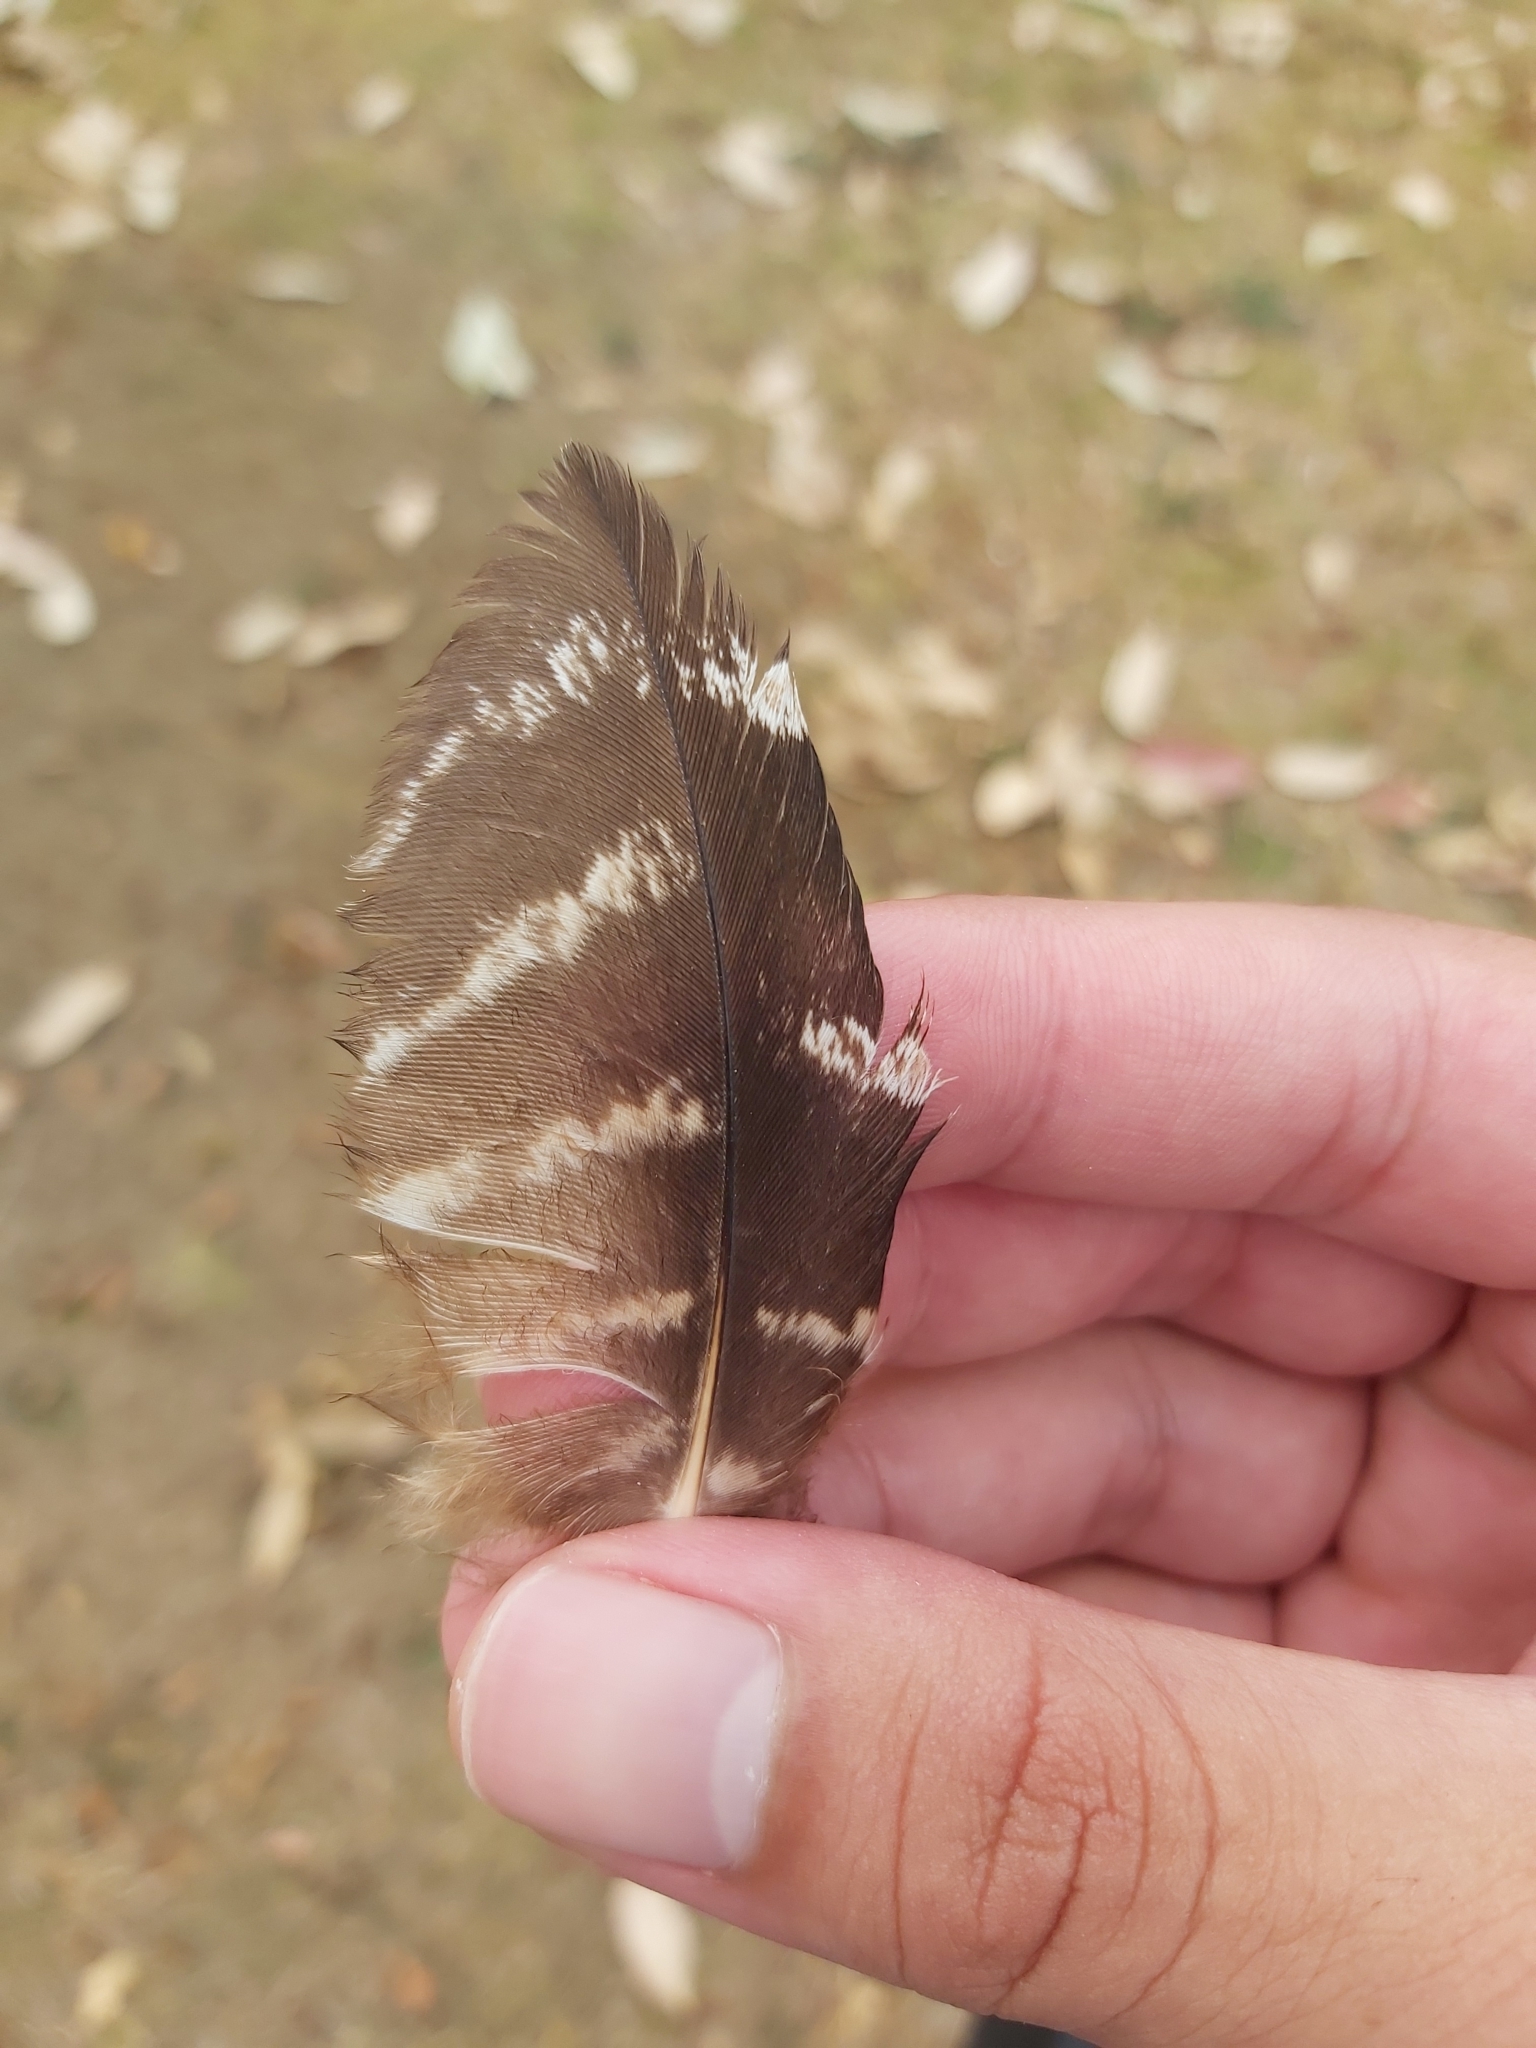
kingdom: Animalia
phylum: Chordata
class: Aves
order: Caprimulgiformes
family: Podargidae
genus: Podargus
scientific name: Podargus strigoides
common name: Tawny frogmouth
